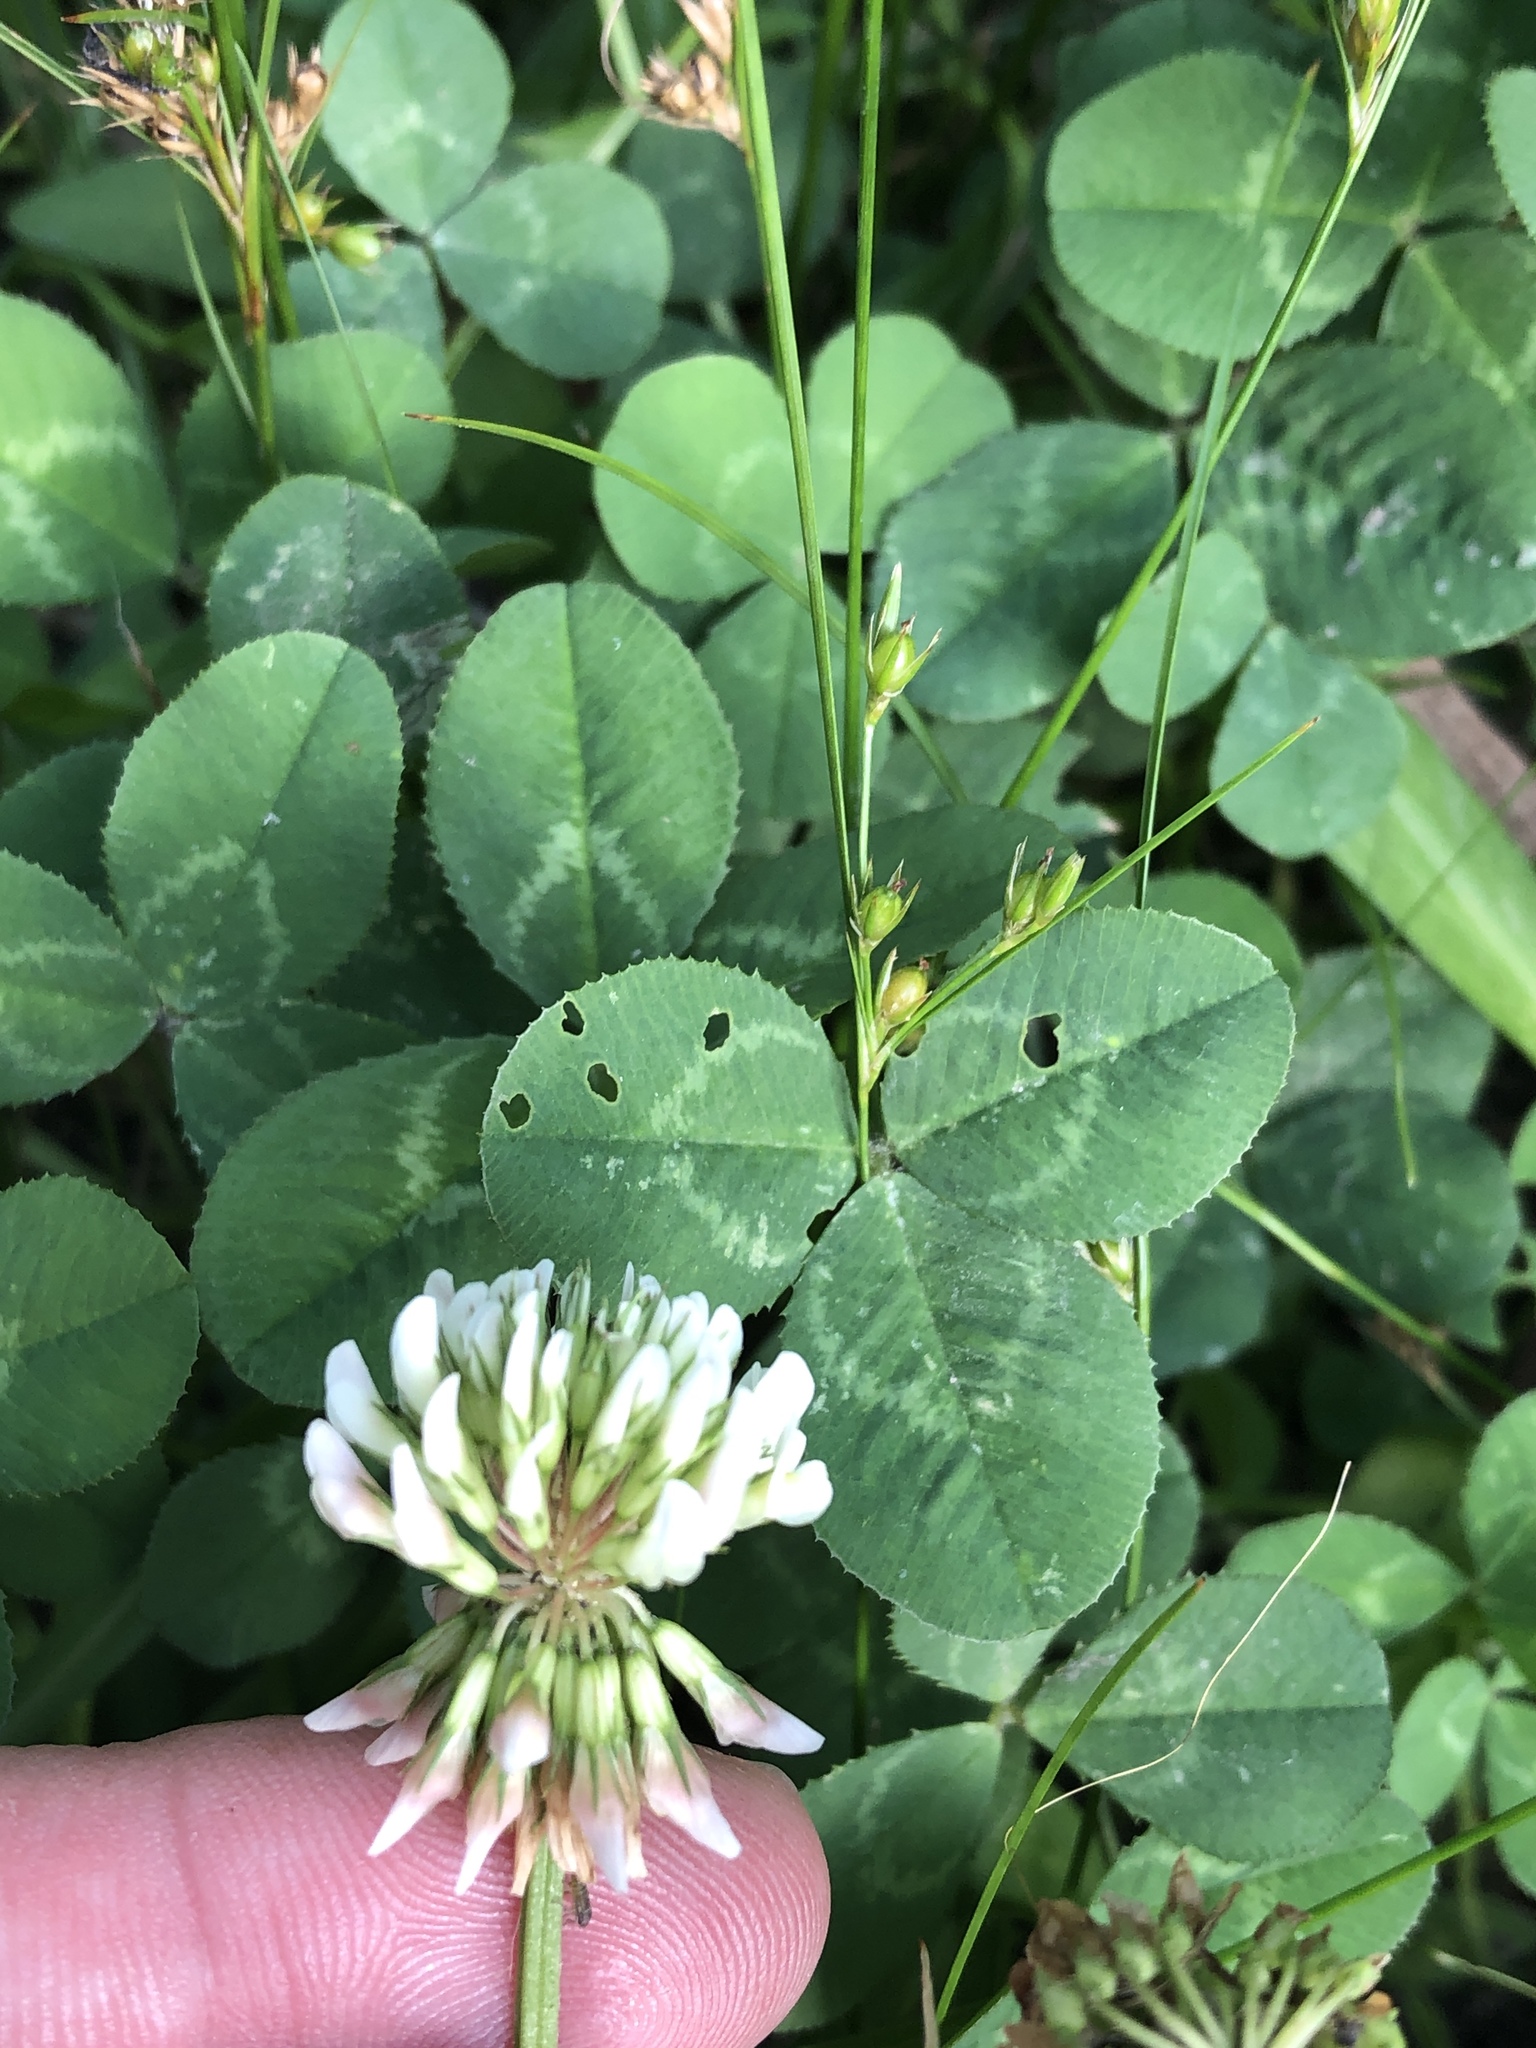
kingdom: Plantae
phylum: Tracheophyta
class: Magnoliopsida
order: Fabales
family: Fabaceae
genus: Trifolium
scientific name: Trifolium repens
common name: White clover
